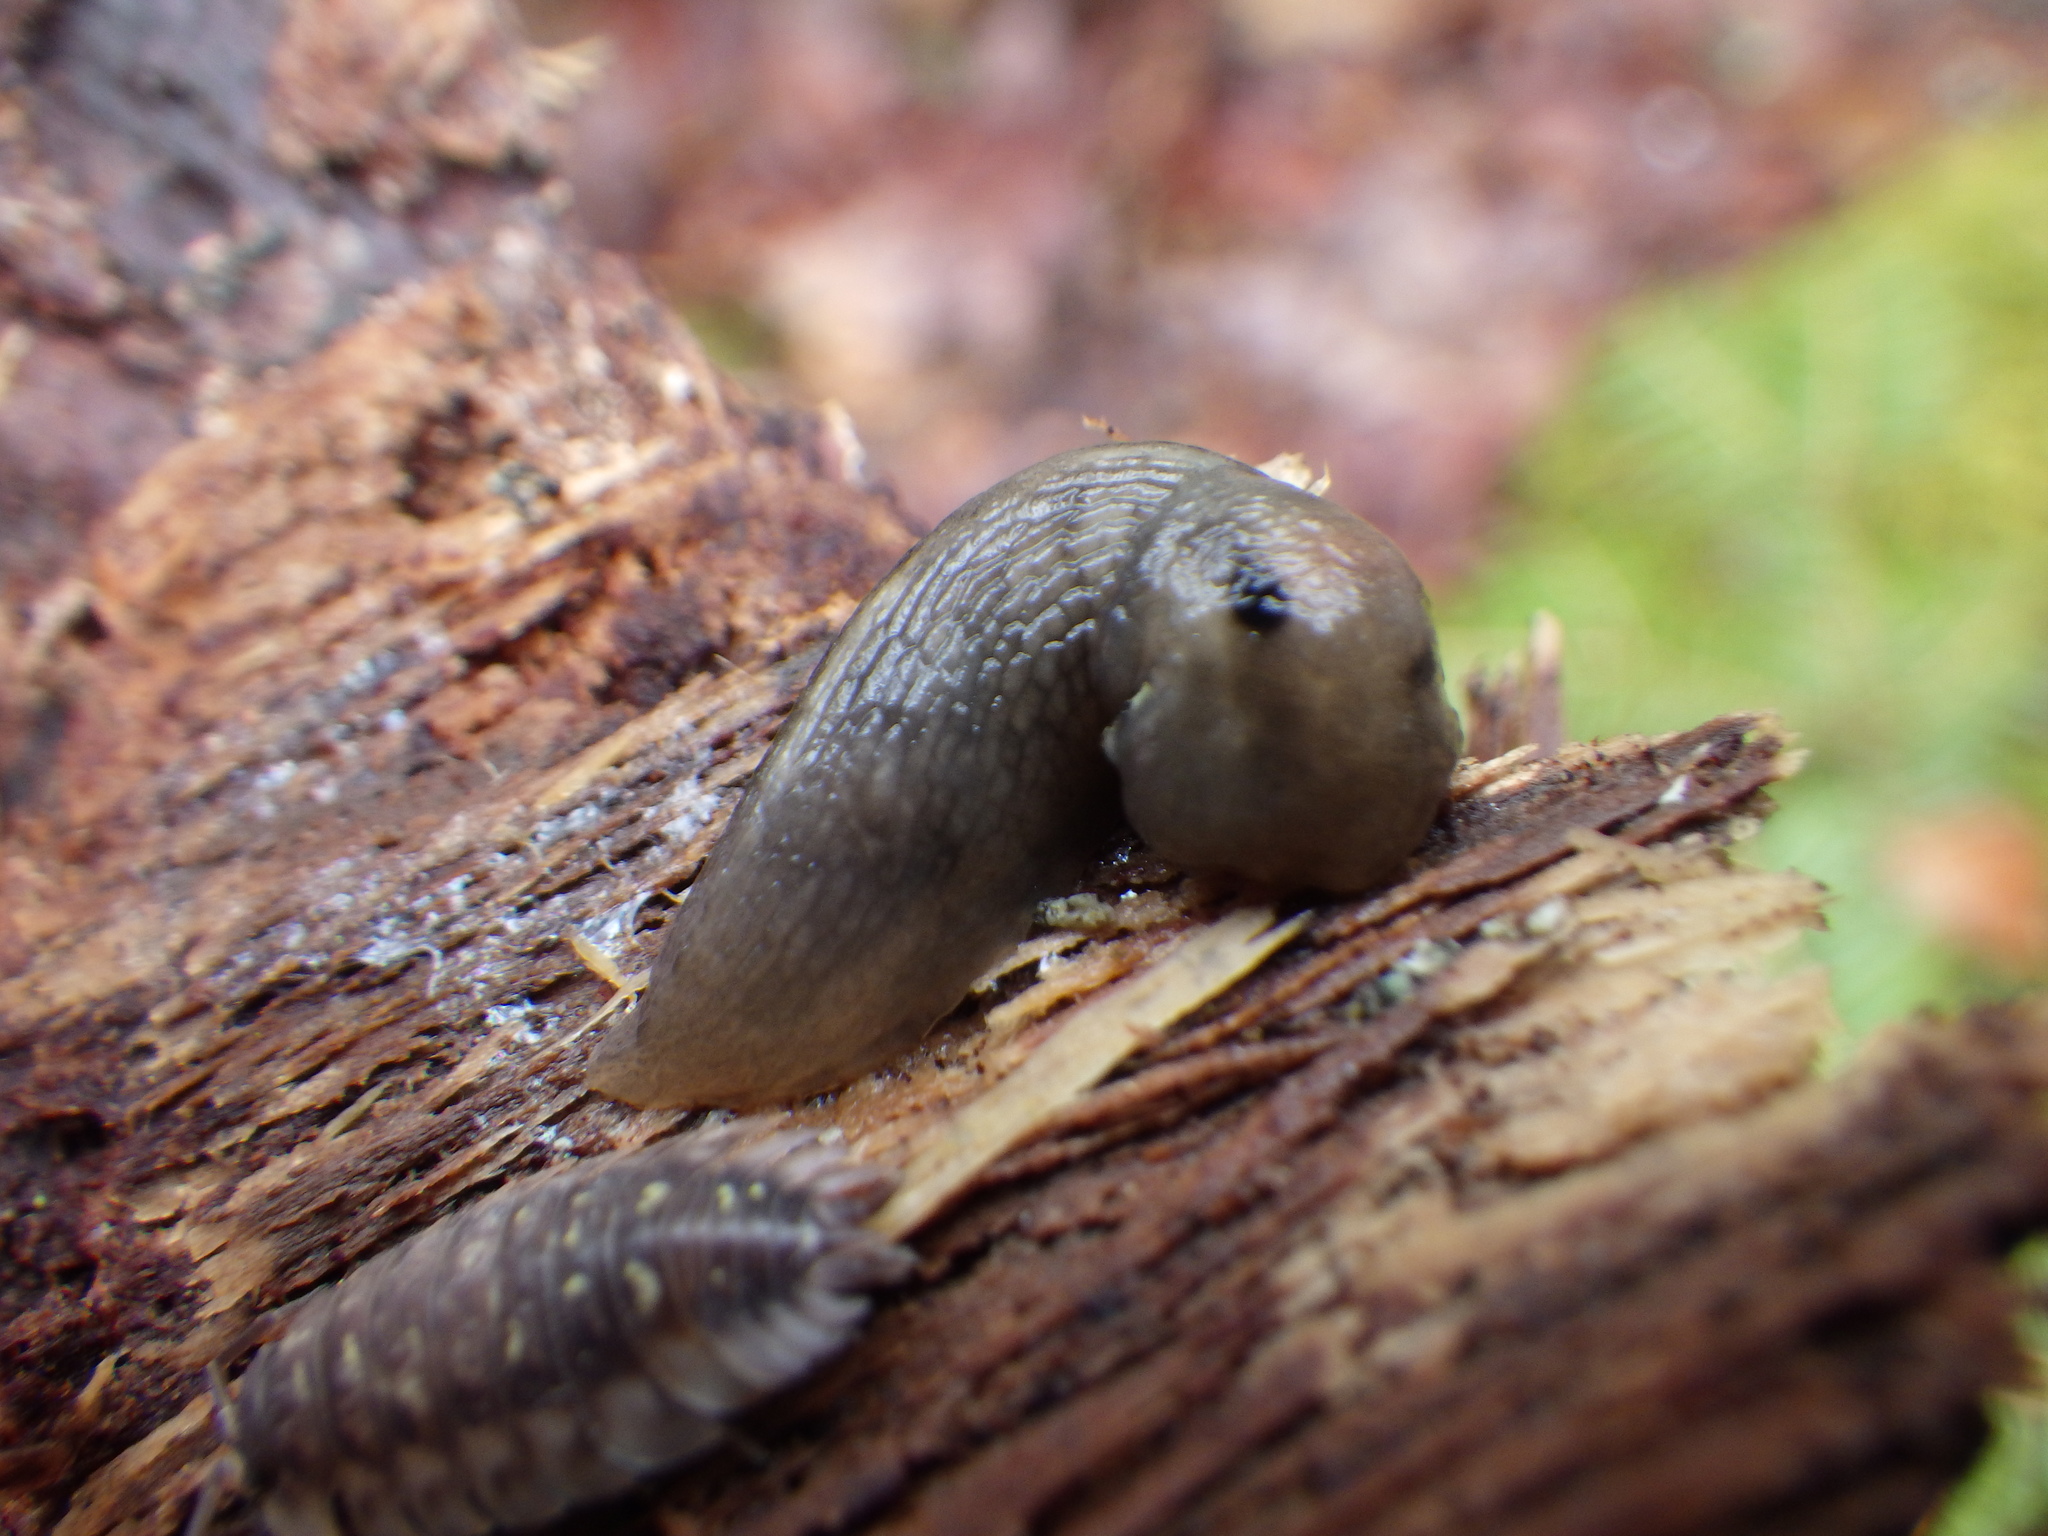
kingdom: Animalia
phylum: Mollusca
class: Gastropoda
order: Stylommatophora
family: Limacidae
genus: Lehmannia
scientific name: Lehmannia marginata
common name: Tree slug
